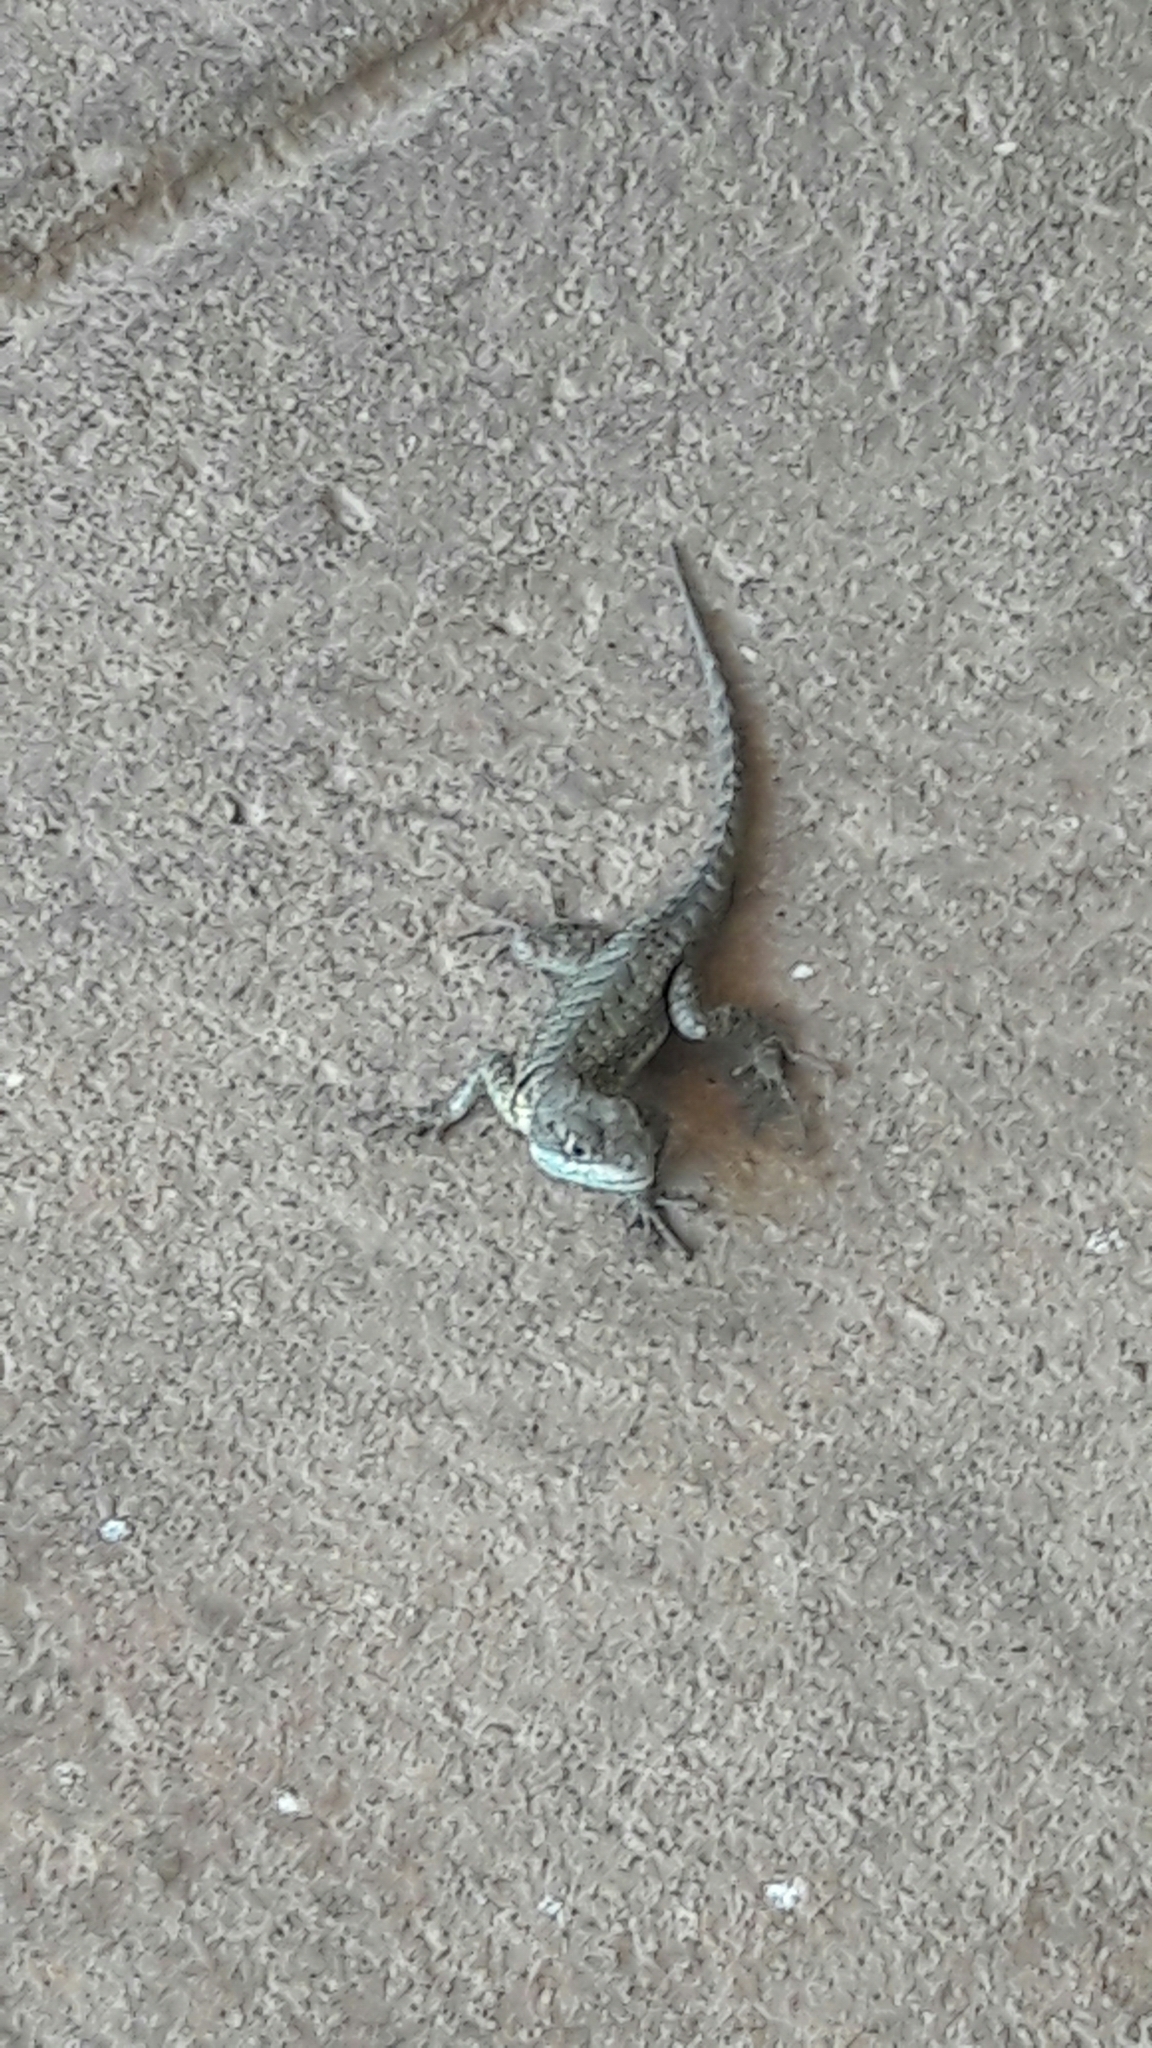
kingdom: Animalia
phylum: Chordata
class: Squamata
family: Tropiduridae
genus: Tropidurus
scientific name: Tropidurus torquatus
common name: Amazon lava lizard
